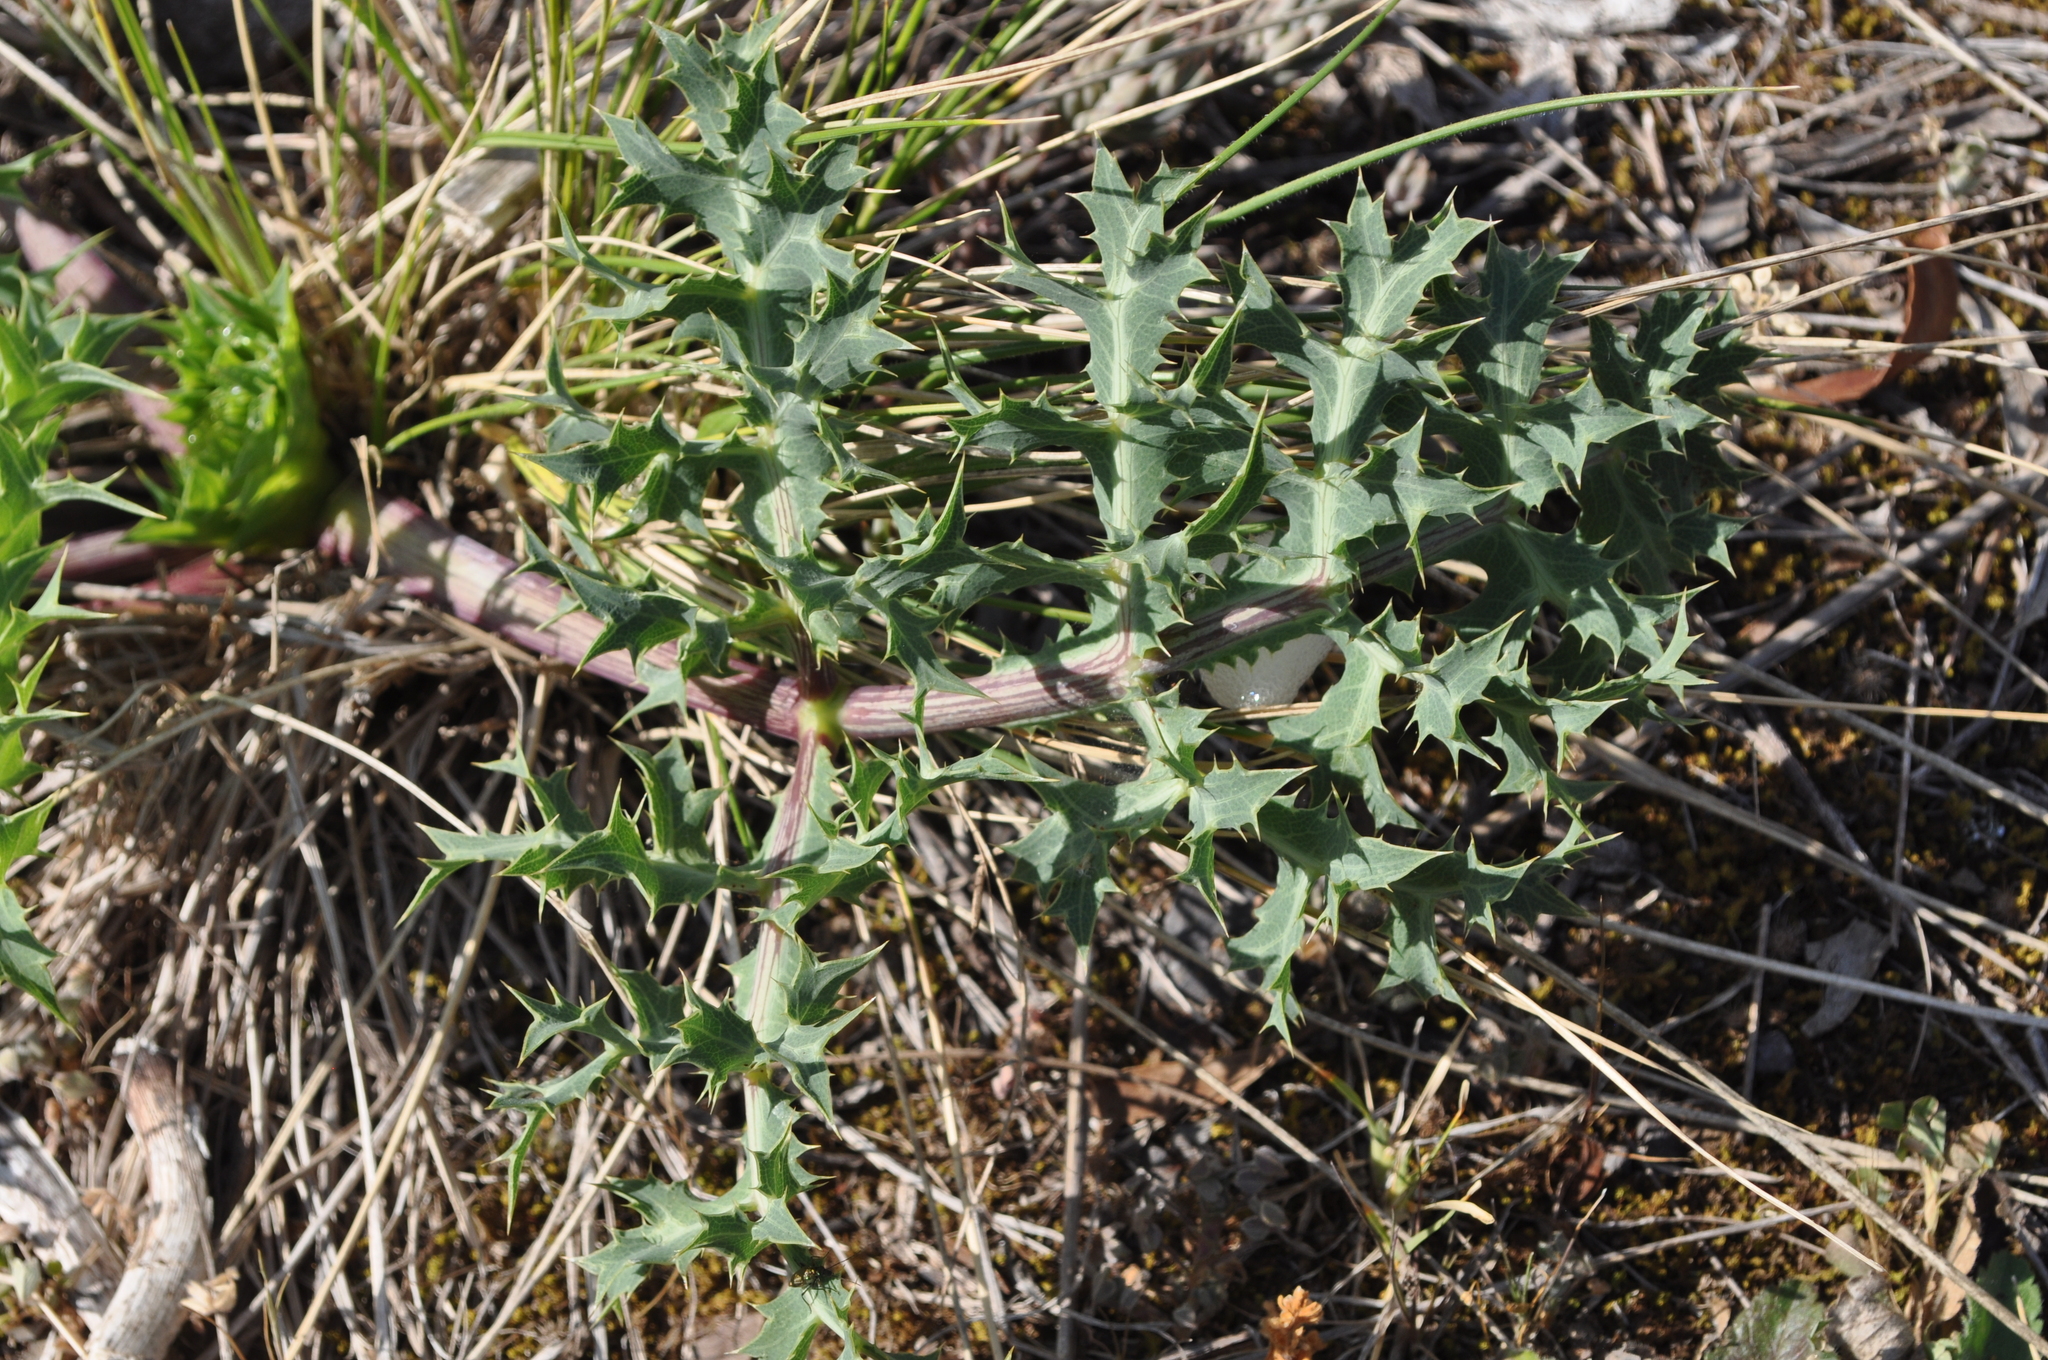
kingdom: Plantae
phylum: Tracheophyta
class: Magnoliopsida
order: Apiales
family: Apiaceae
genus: Eryngium
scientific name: Eryngium campestre
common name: Field eryngo
